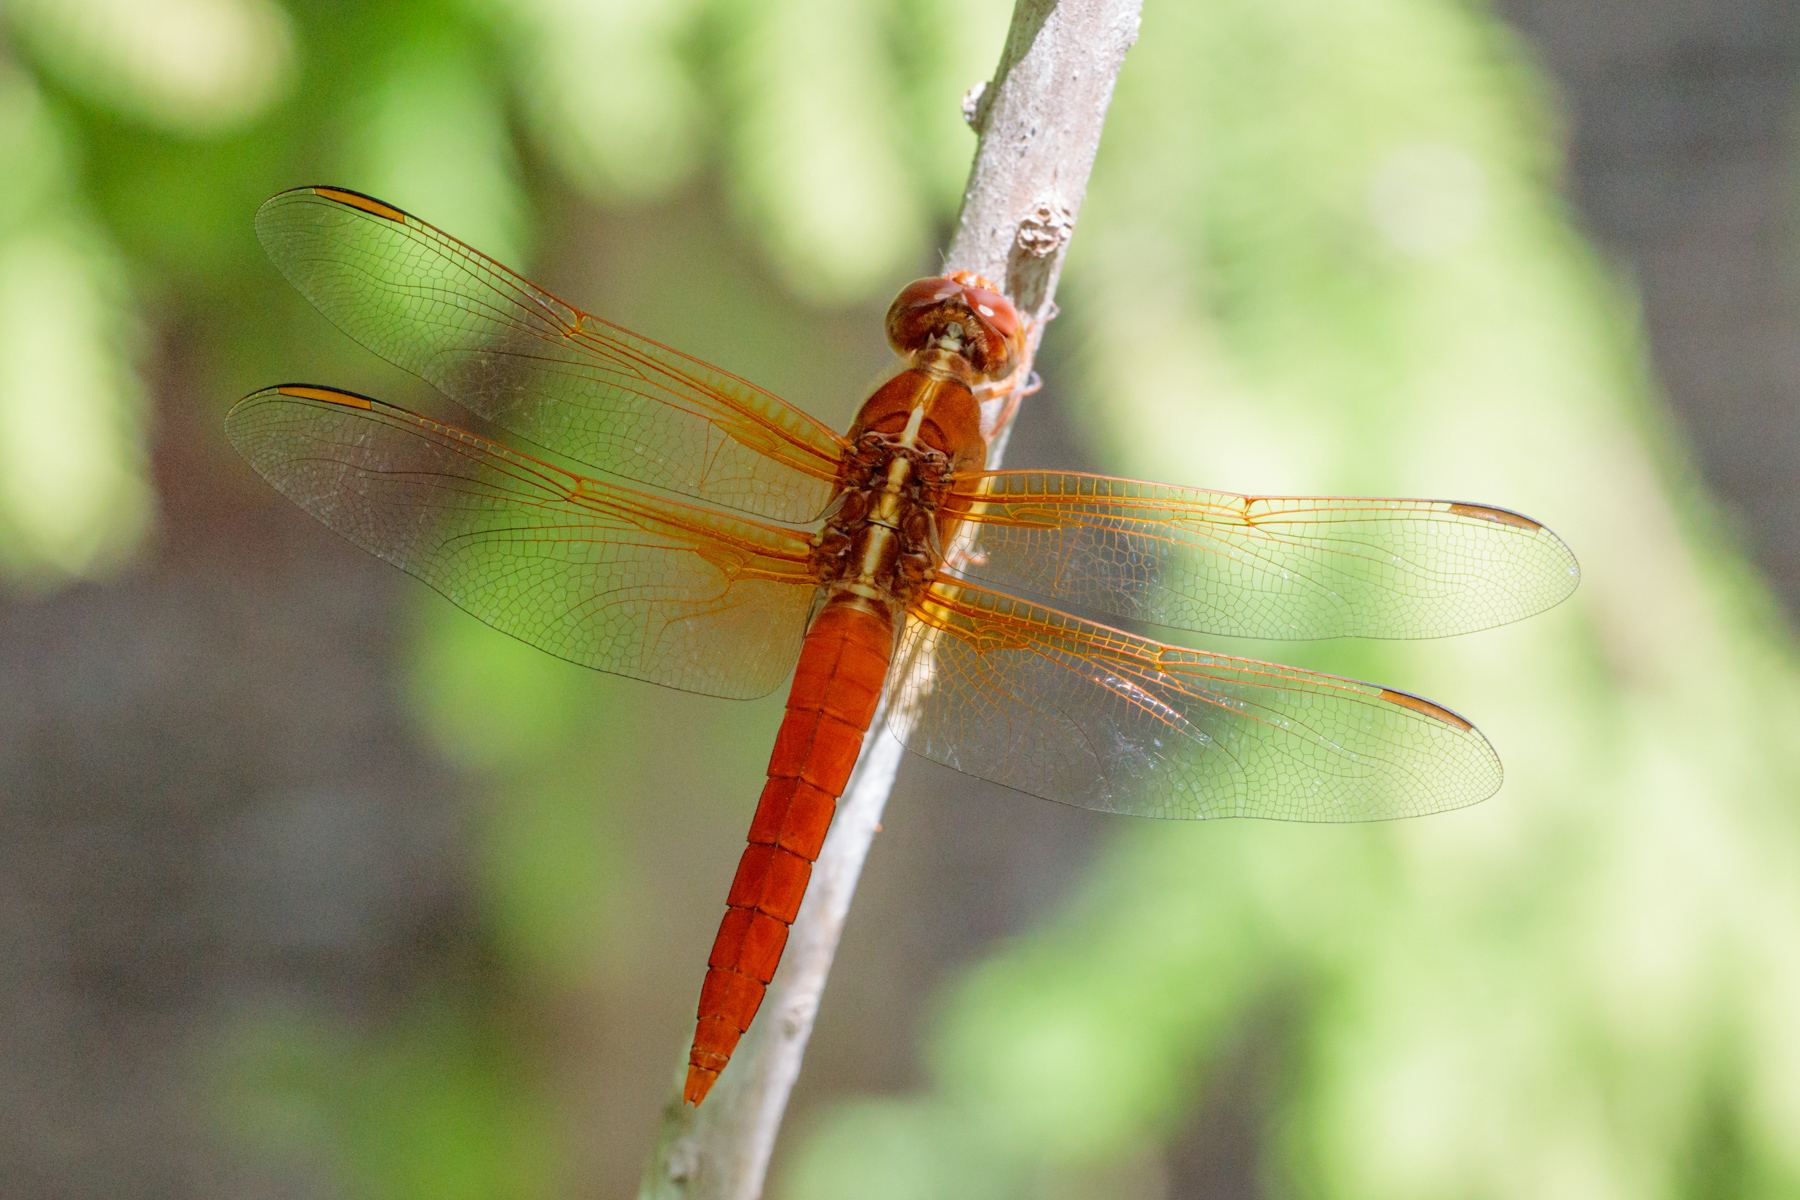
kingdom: Animalia
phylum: Arthropoda
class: Insecta
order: Odonata
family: Libellulidae
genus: Libellula
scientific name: Libellula croceipennis
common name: Neon skimmer
